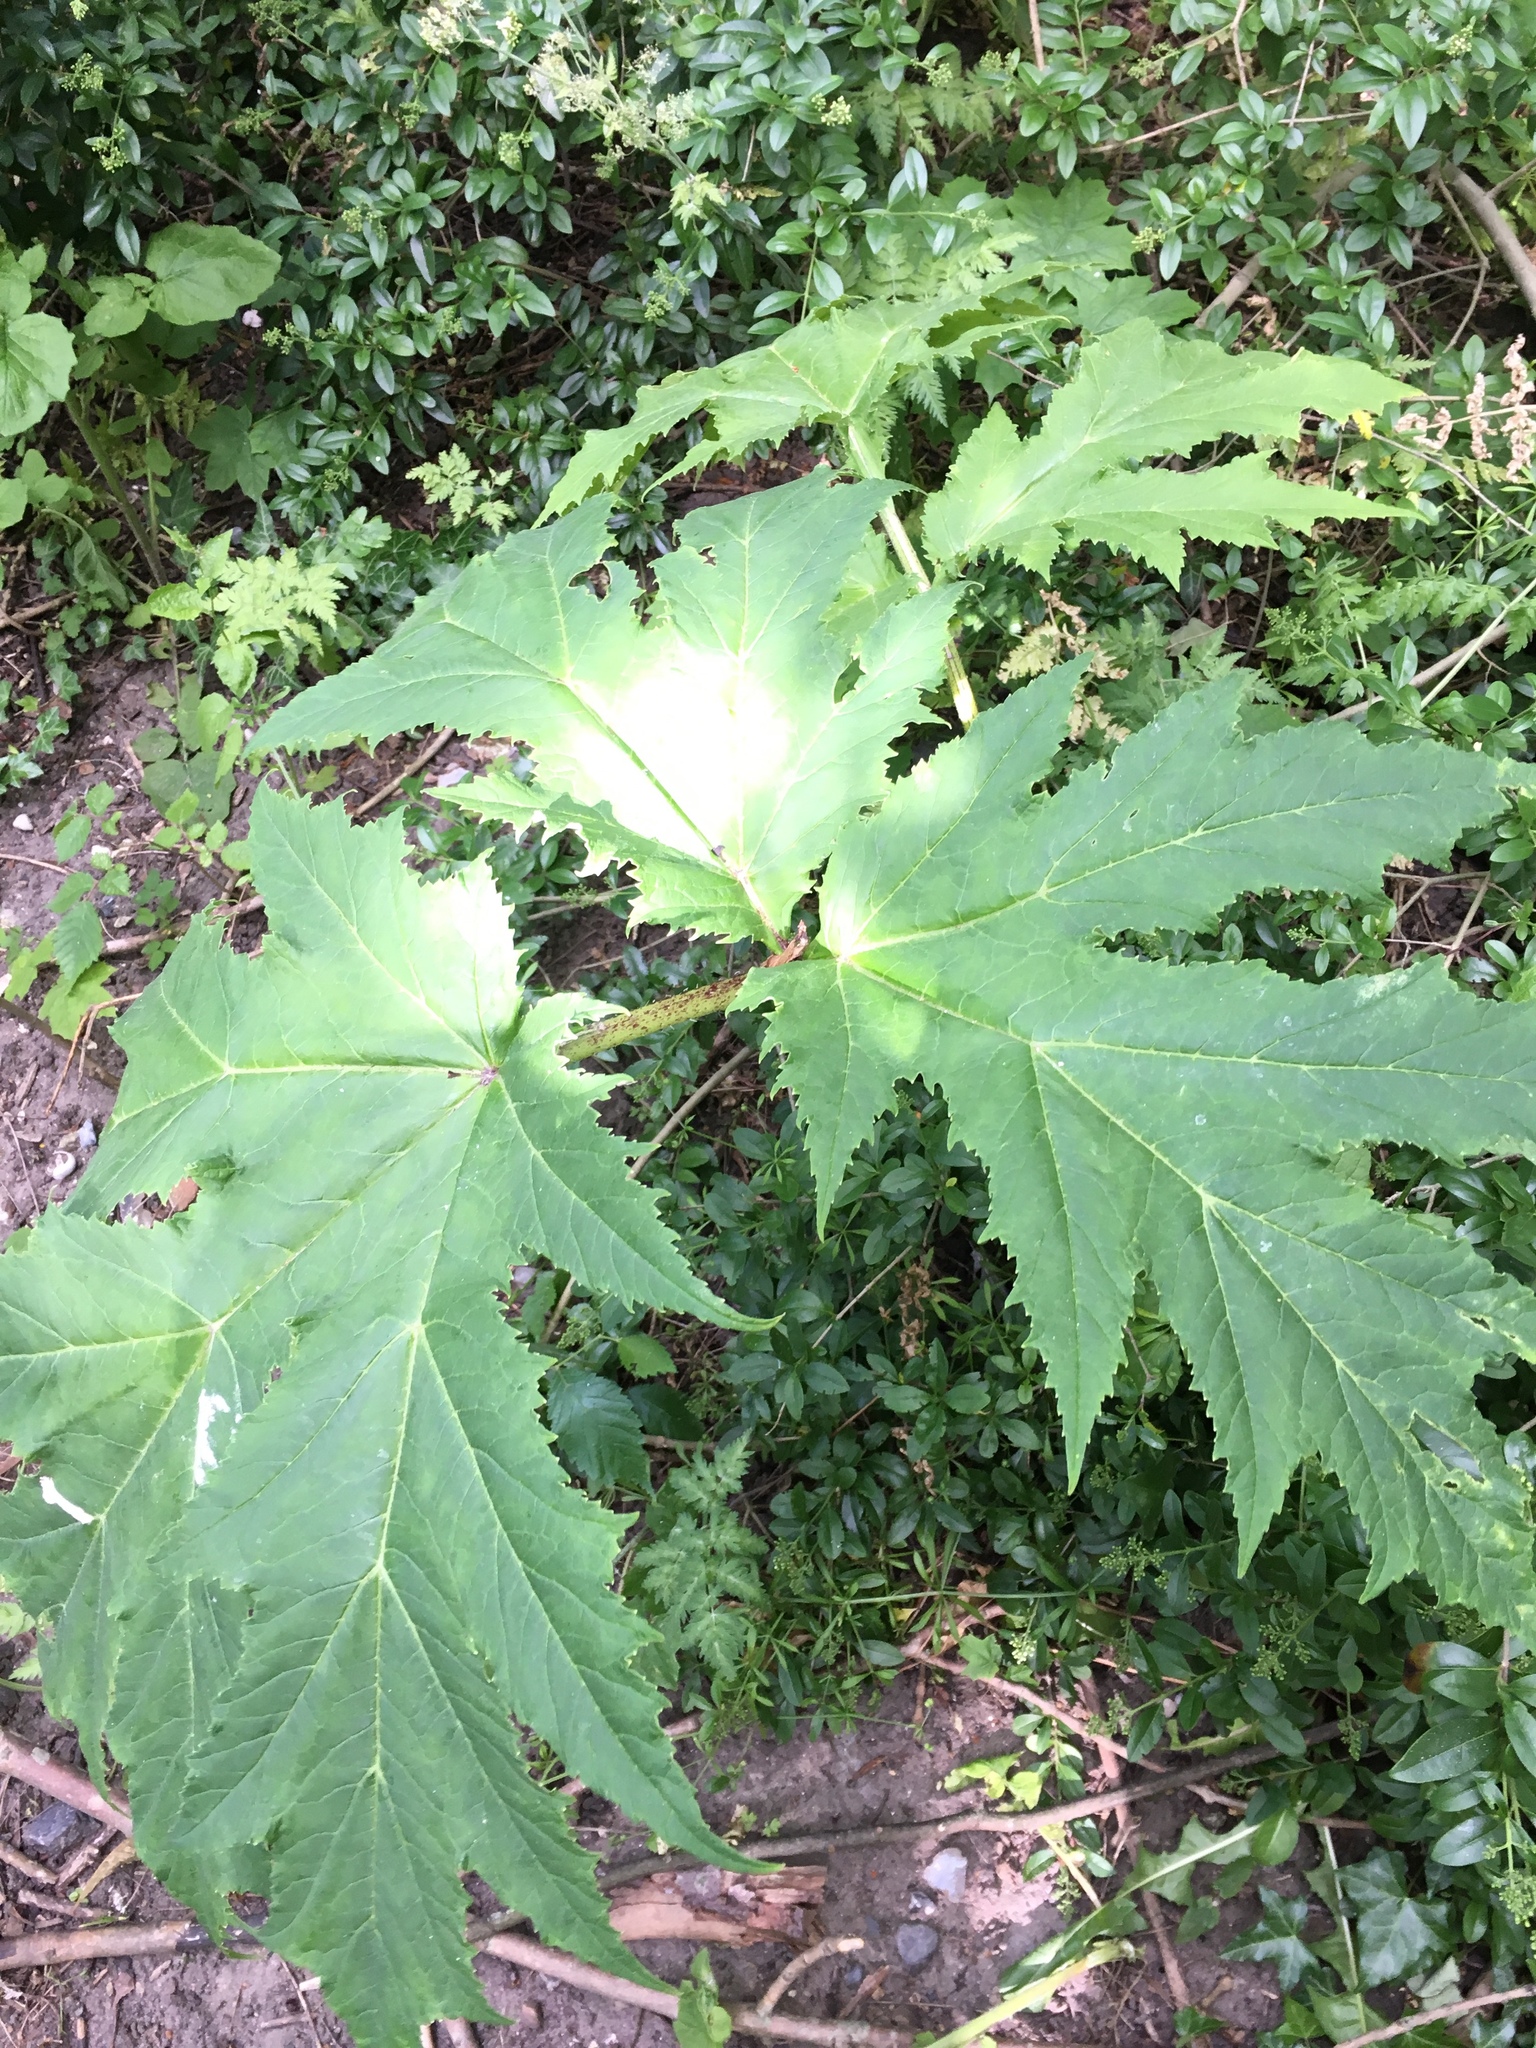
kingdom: Plantae
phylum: Tracheophyta
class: Magnoliopsida
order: Apiales
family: Apiaceae
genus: Heracleum
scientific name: Heracleum mantegazzianum
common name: Giant hogweed
